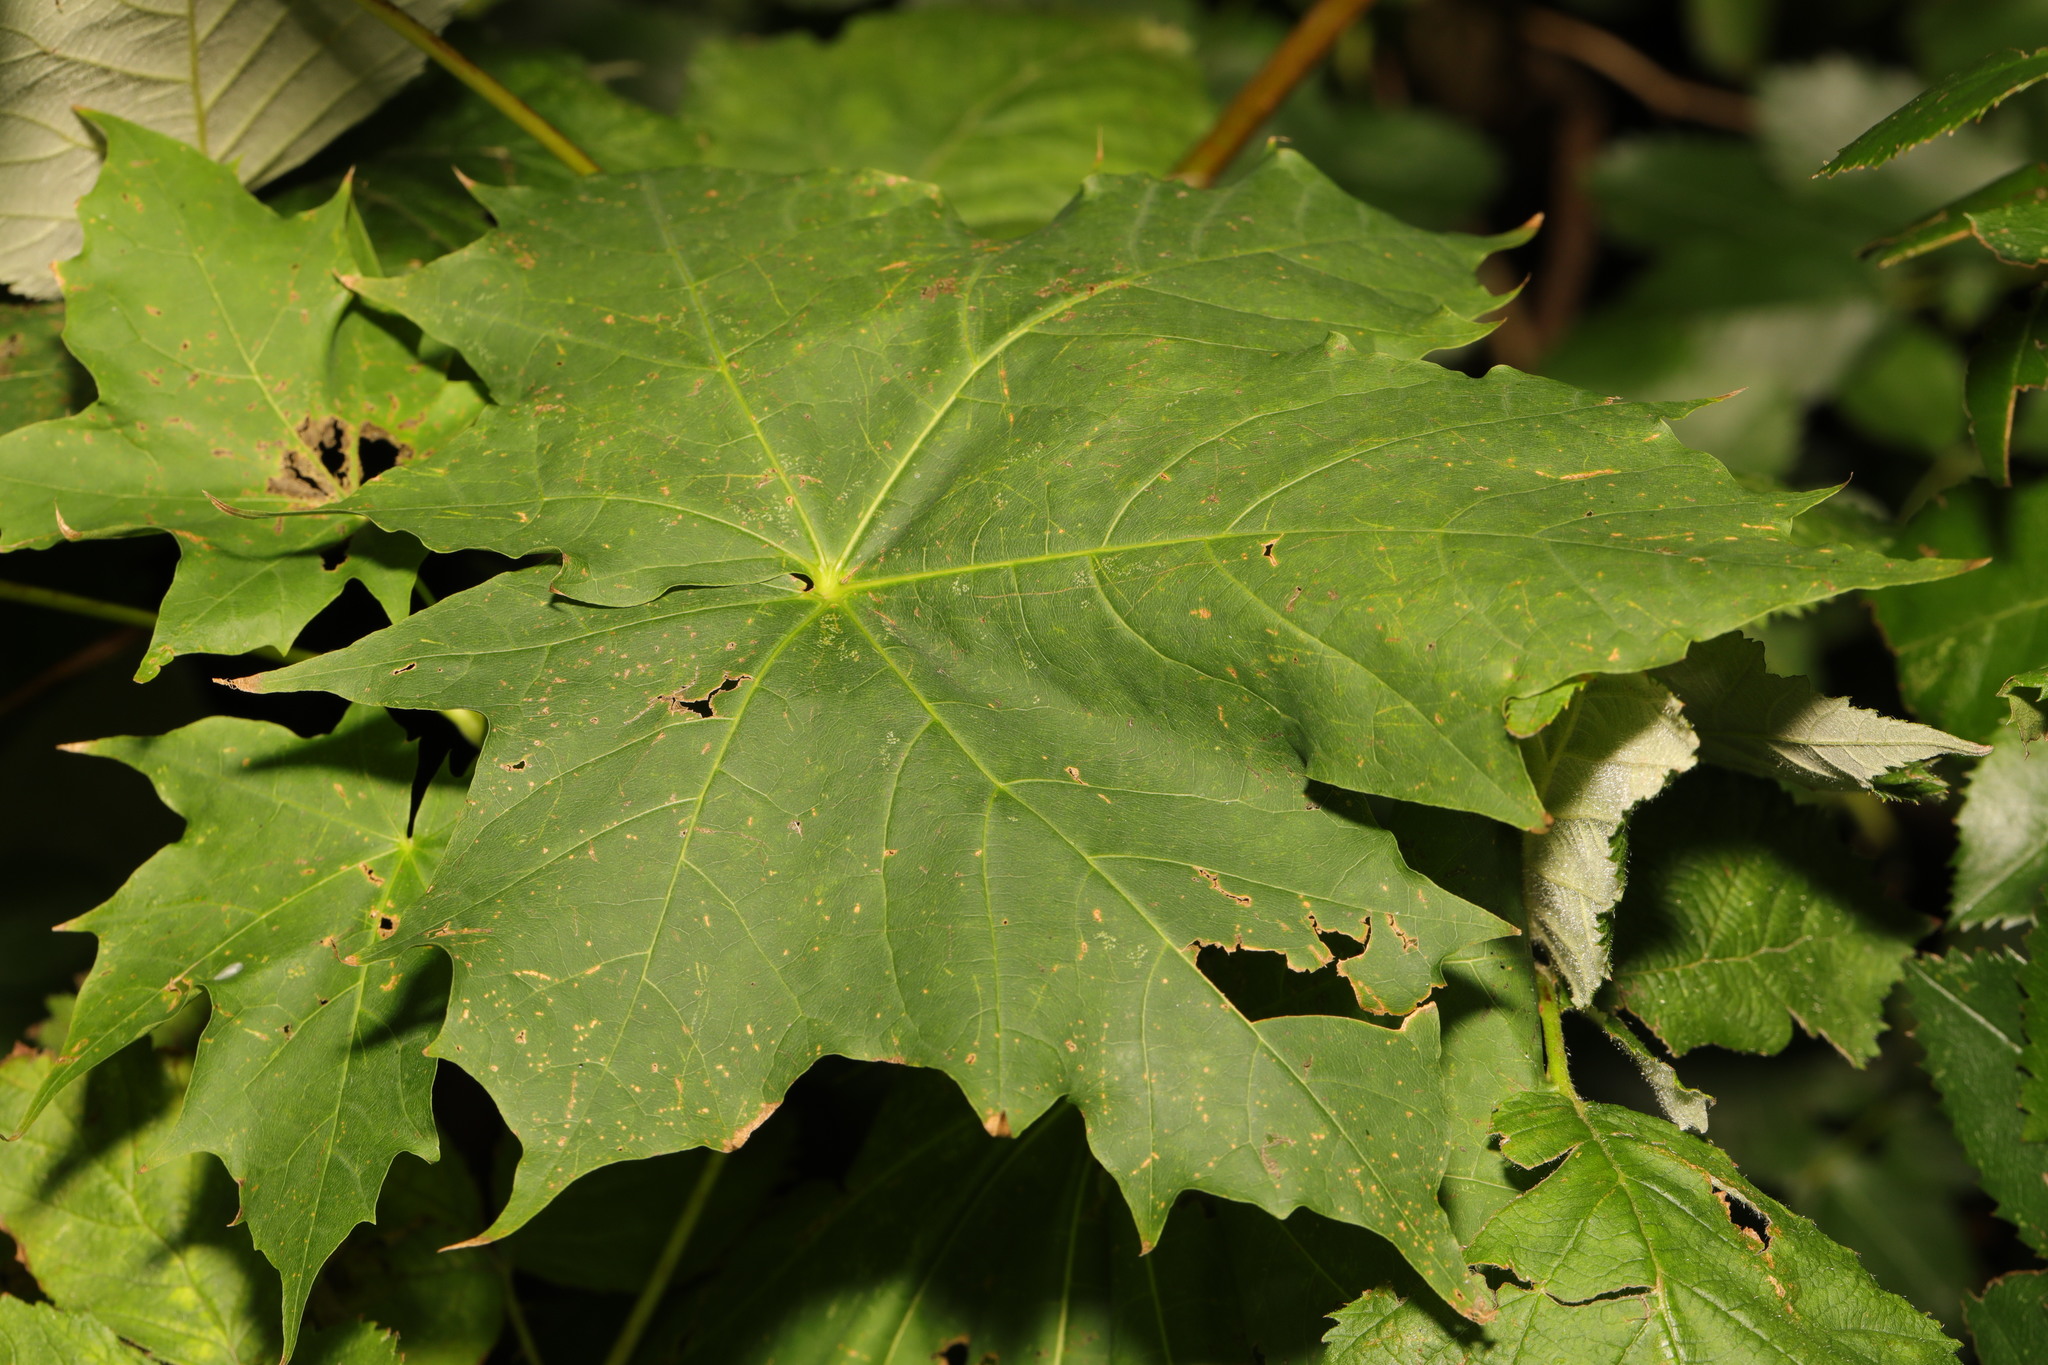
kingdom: Plantae
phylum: Tracheophyta
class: Magnoliopsida
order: Sapindales
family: Sapindaceae
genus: Acer
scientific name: Acer platanoides
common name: Norway maple
